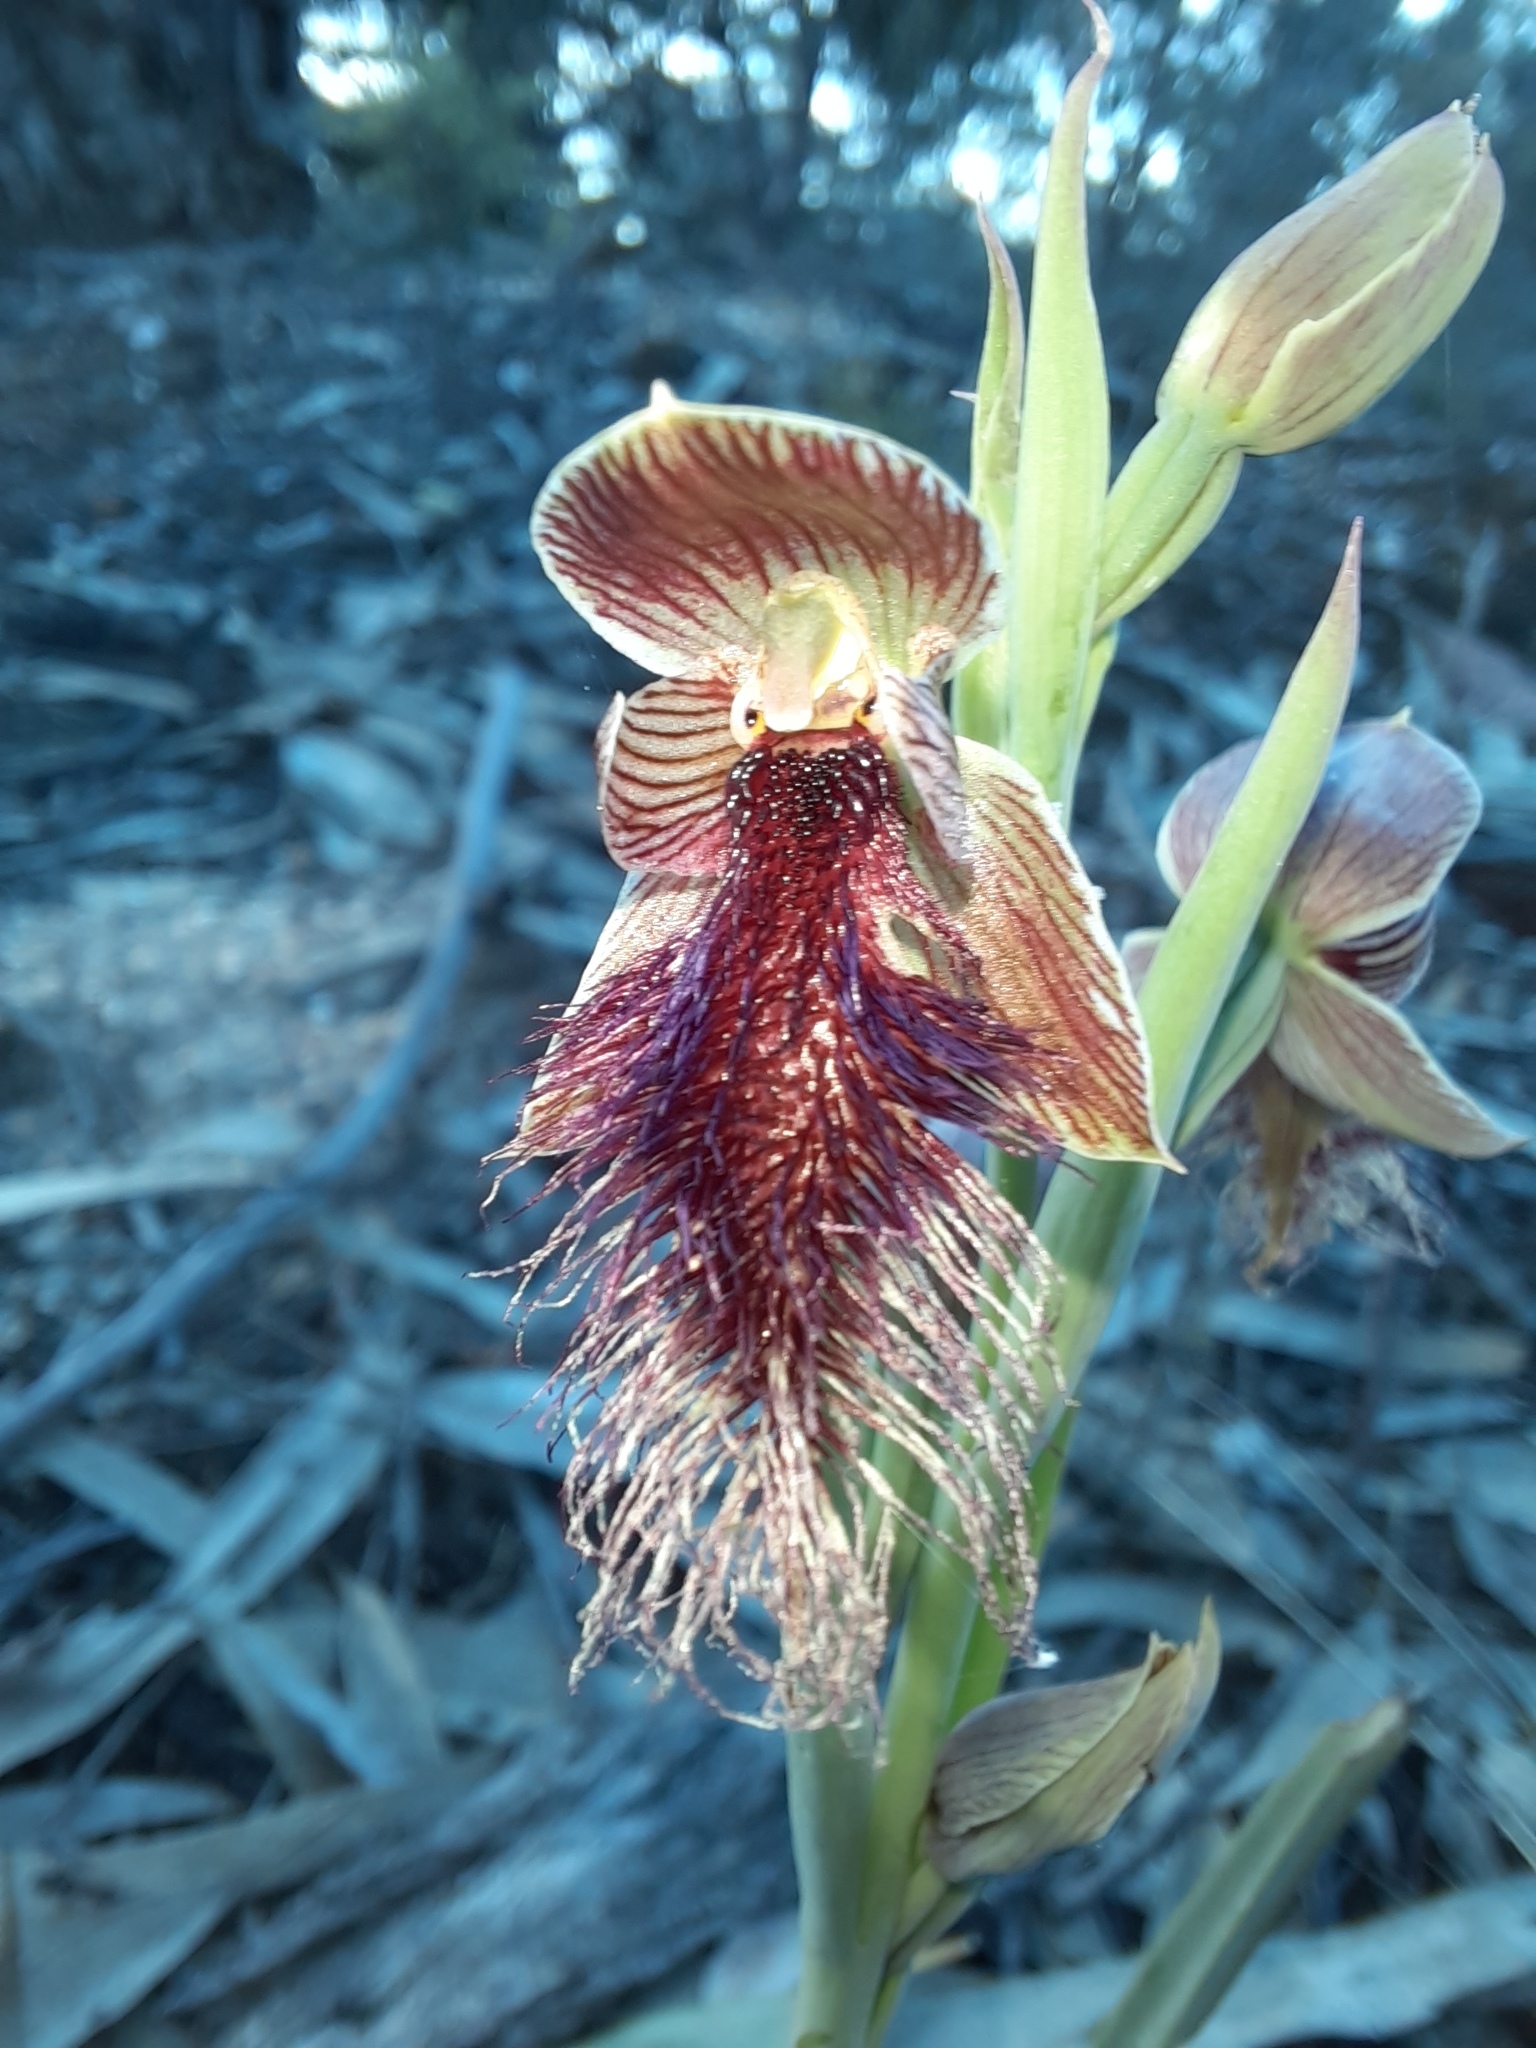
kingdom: Plantae
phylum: Tracheophyta
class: Liliopsida
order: Asparagales
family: Orchidaceae
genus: Calochilus
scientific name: Calochilus robertsonii
